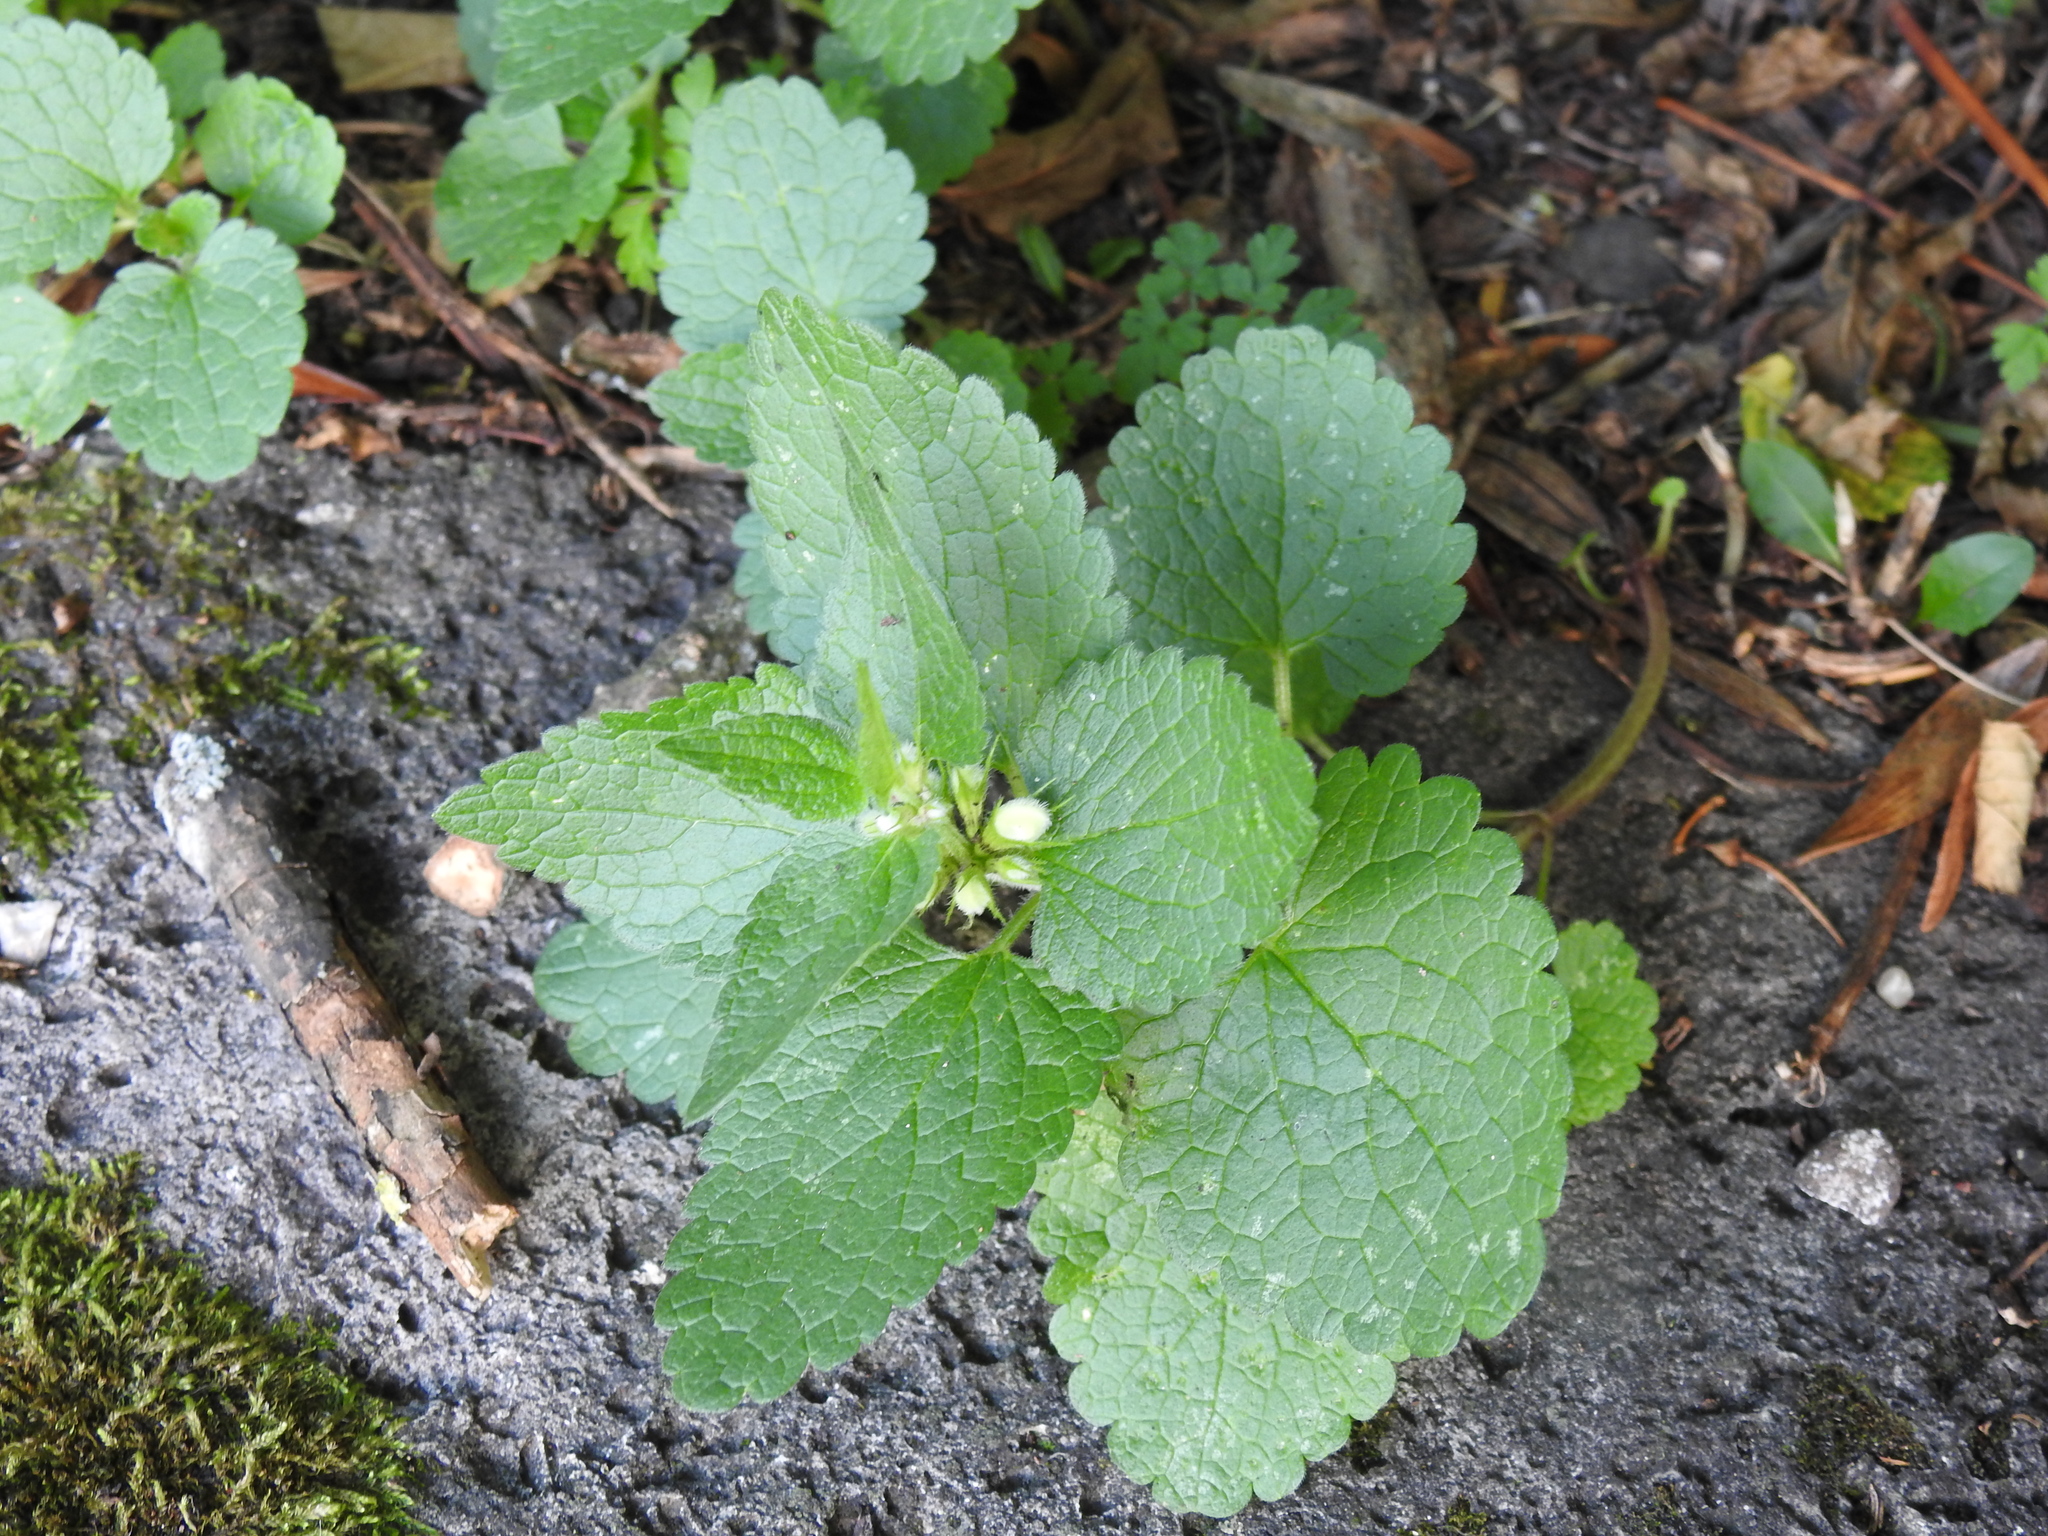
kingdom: Plantae
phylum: Tracheophyta
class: Magnoliopsida
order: Lamiales
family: Lamiaceae
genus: Lamium
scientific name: Lamium album
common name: White dead-nettle
